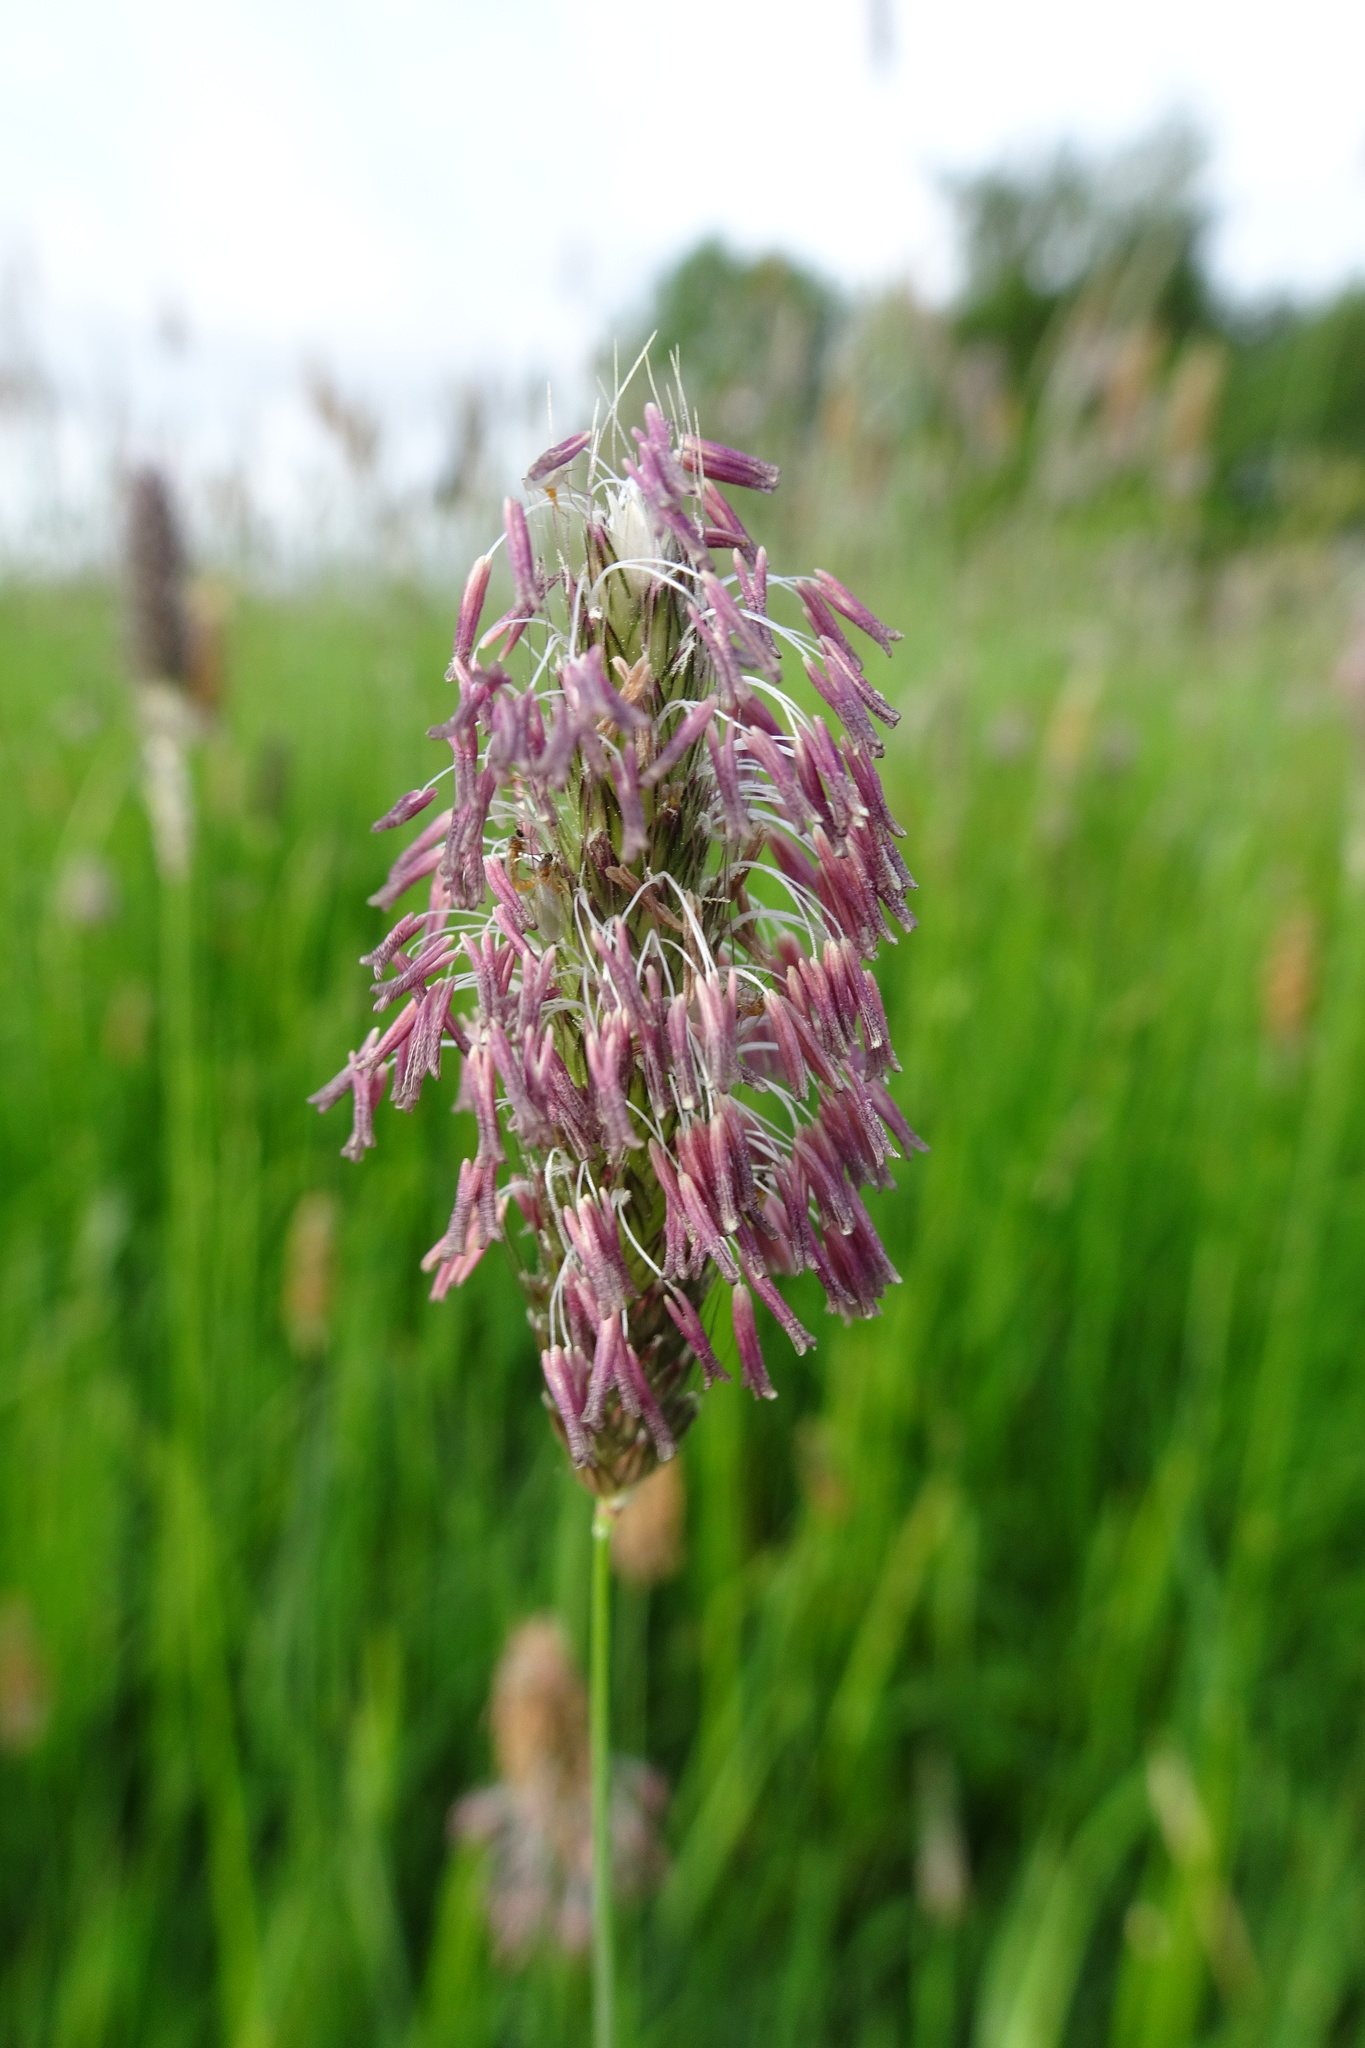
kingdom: Plantae
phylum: Tracheophyta
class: Liliopsida
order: Poales
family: Poaceae
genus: Alopecurus
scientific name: Alopecurus pratensis
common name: Meadow foxtail
